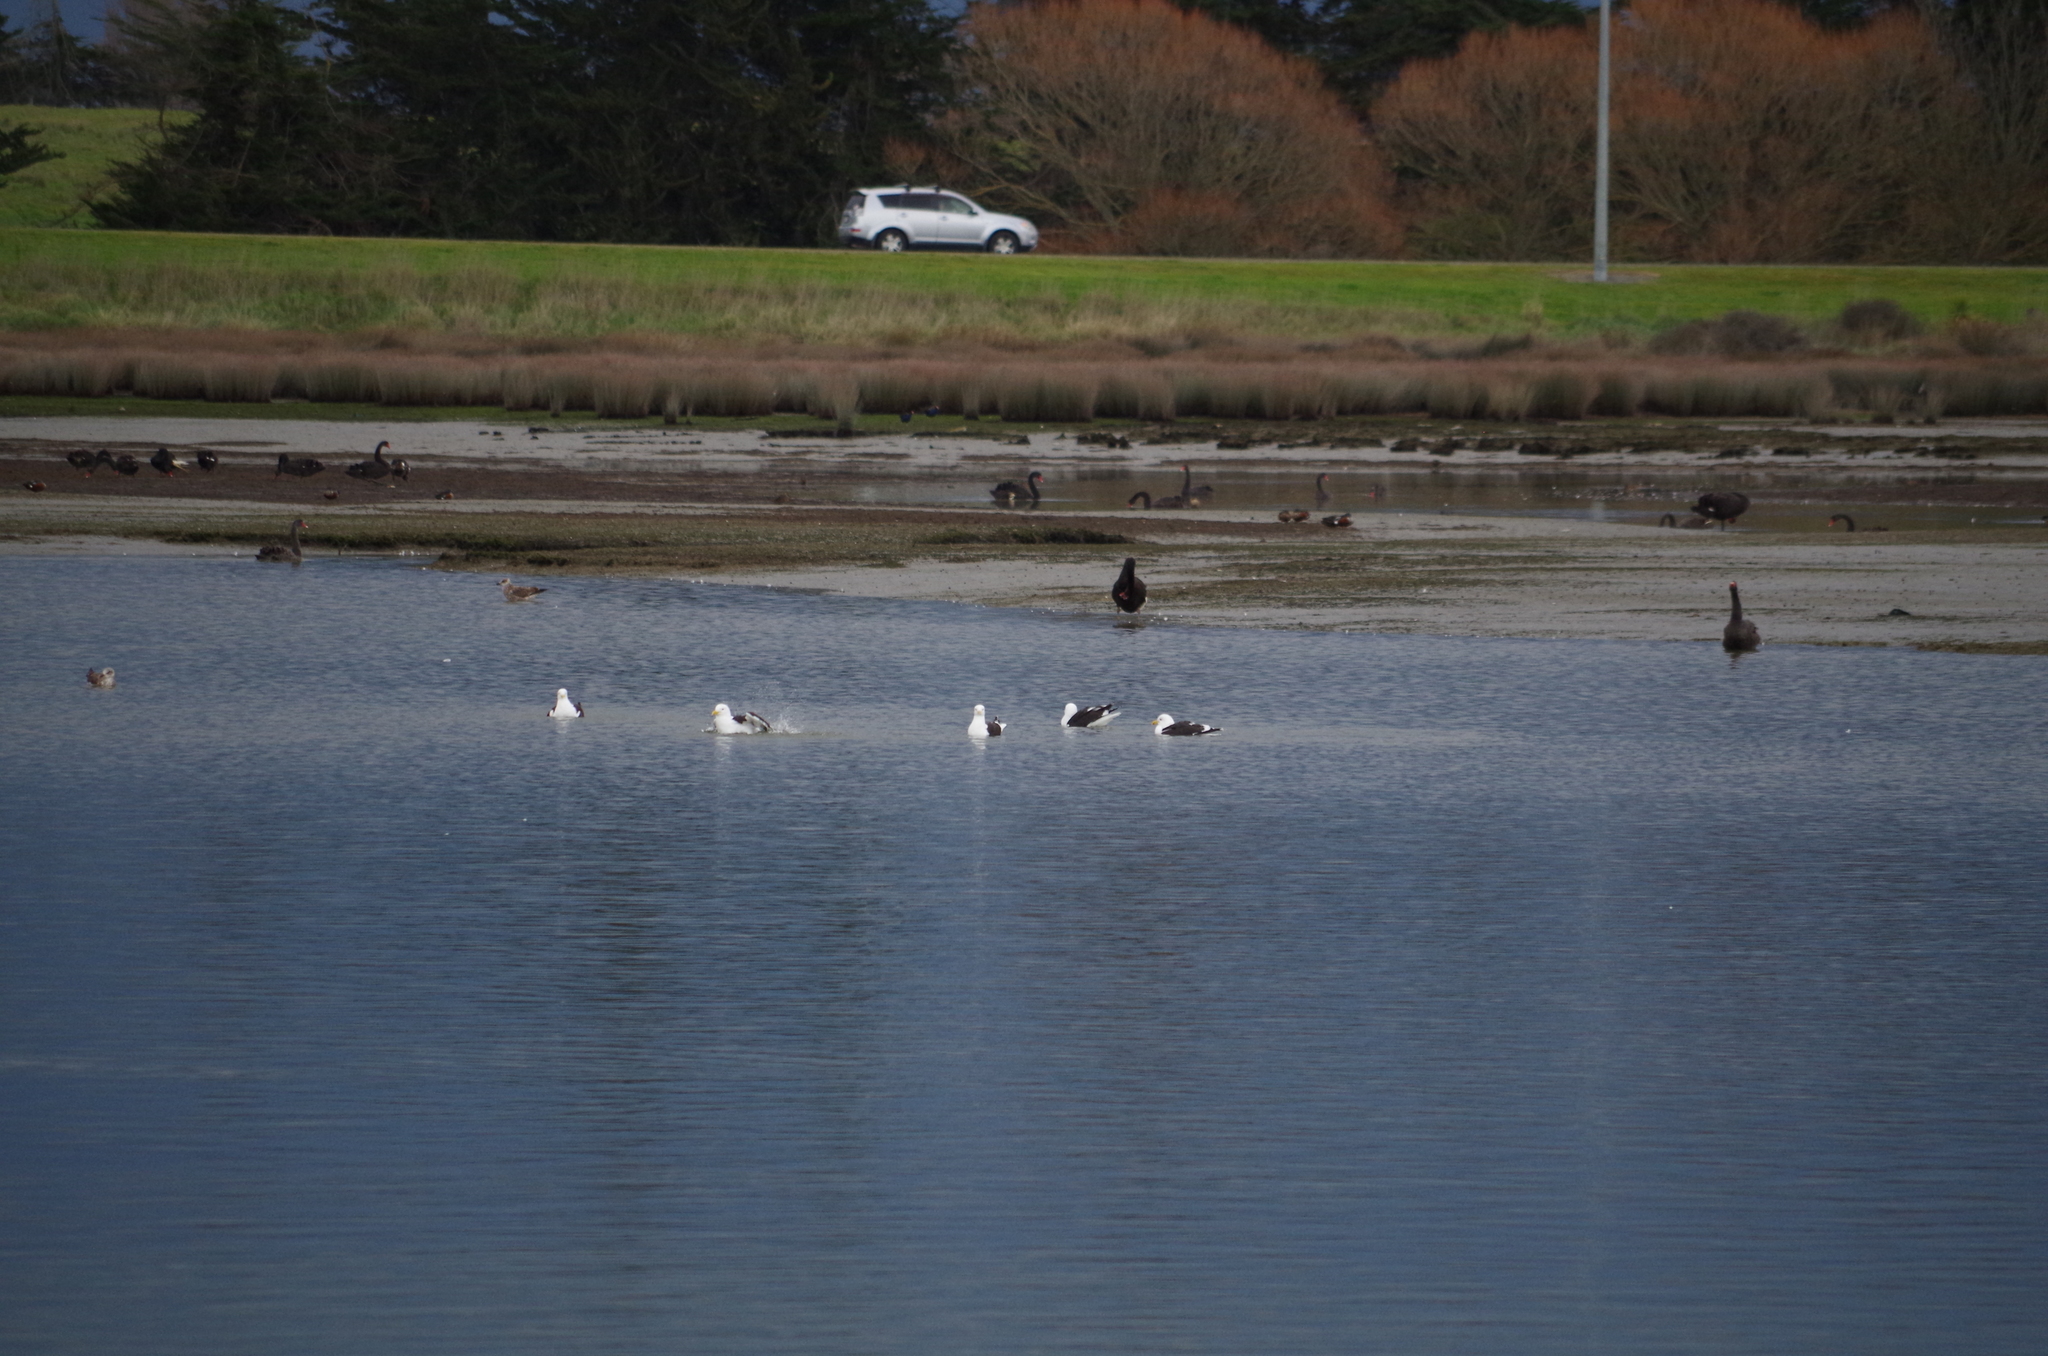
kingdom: Animalia
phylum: Chordata
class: Aves
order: Charadriiformes
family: Laridae
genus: Larus
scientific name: Larus dominicanus
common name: Kelp gull
